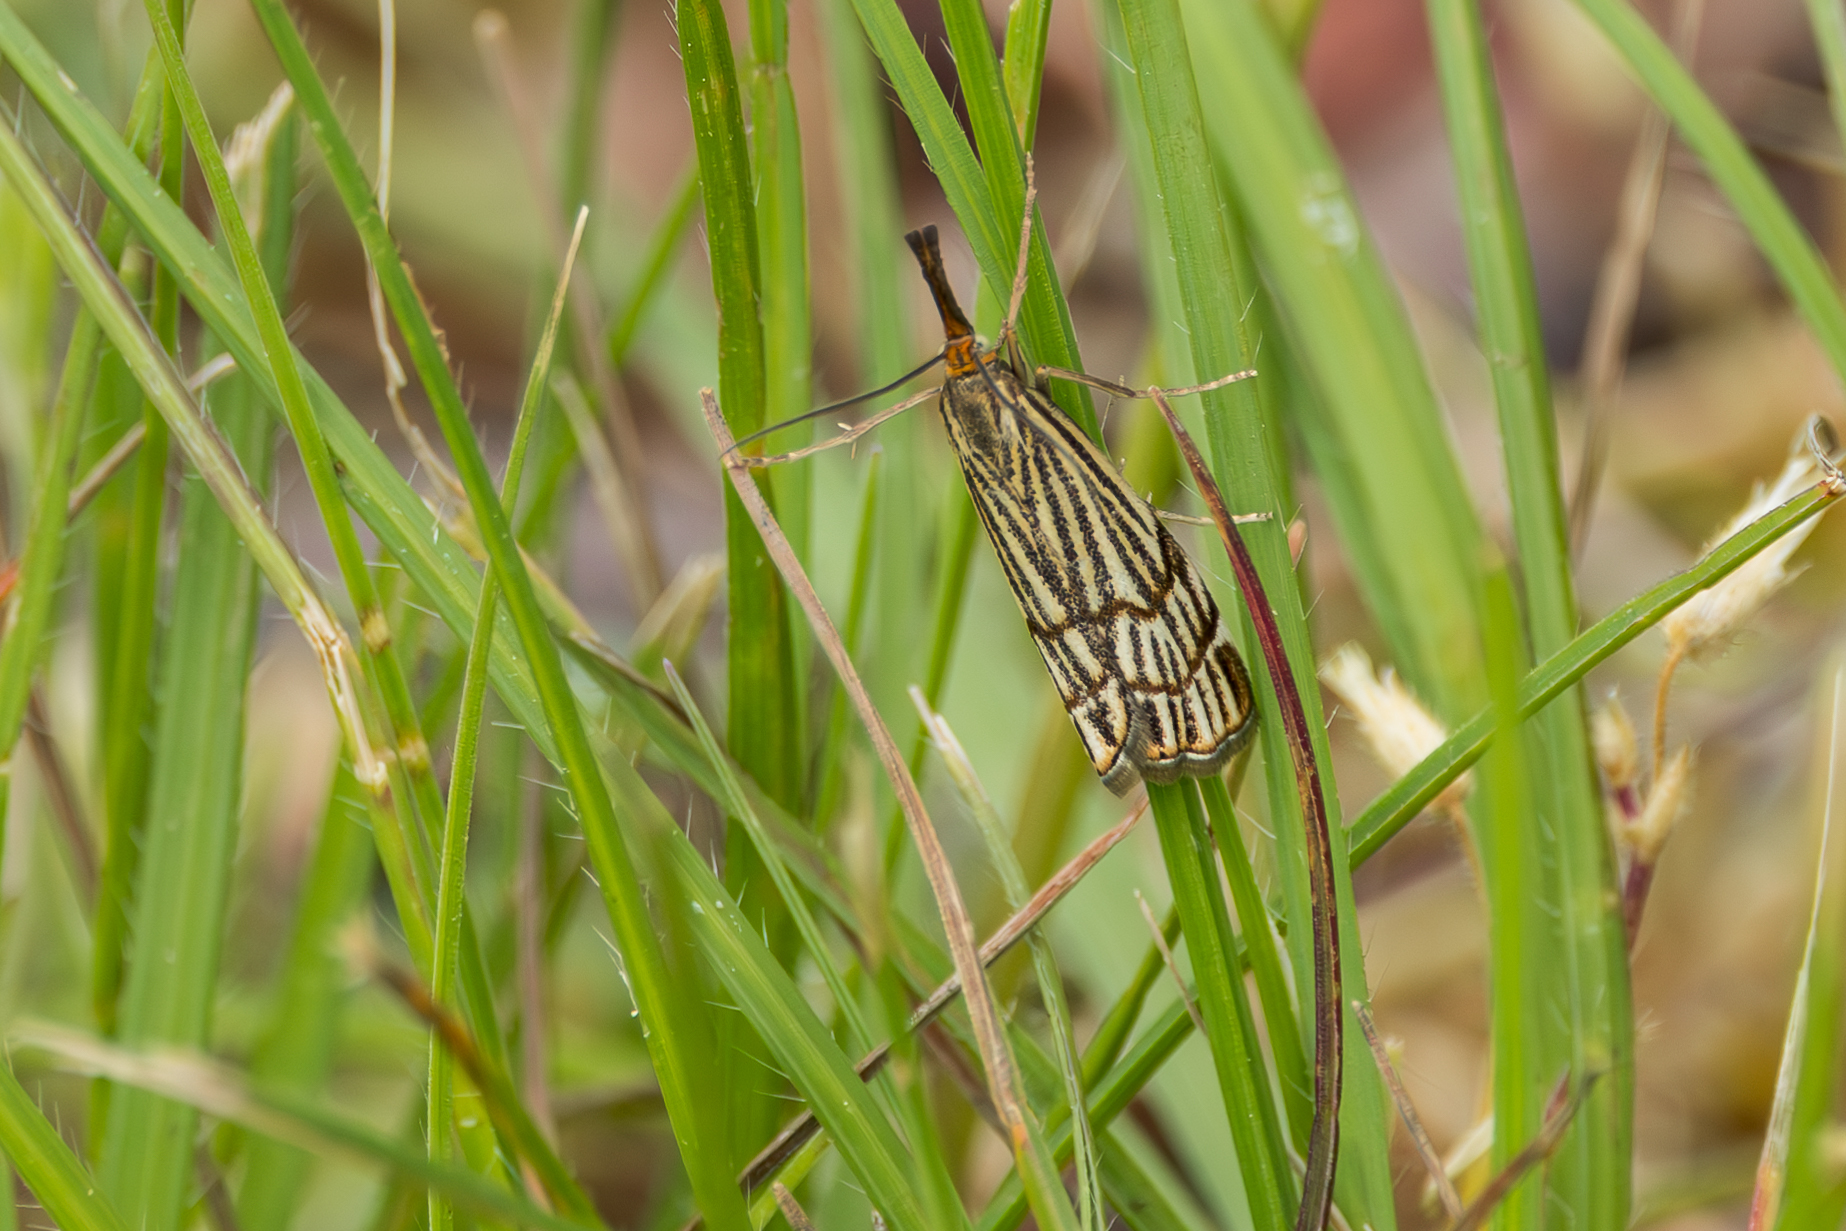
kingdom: Animalia
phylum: Arthropoda
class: Insecta
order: Lepidoptera
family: Crambidae
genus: Chrysocrambus
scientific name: Chrysocrambus Chrysocramboides craterellus
